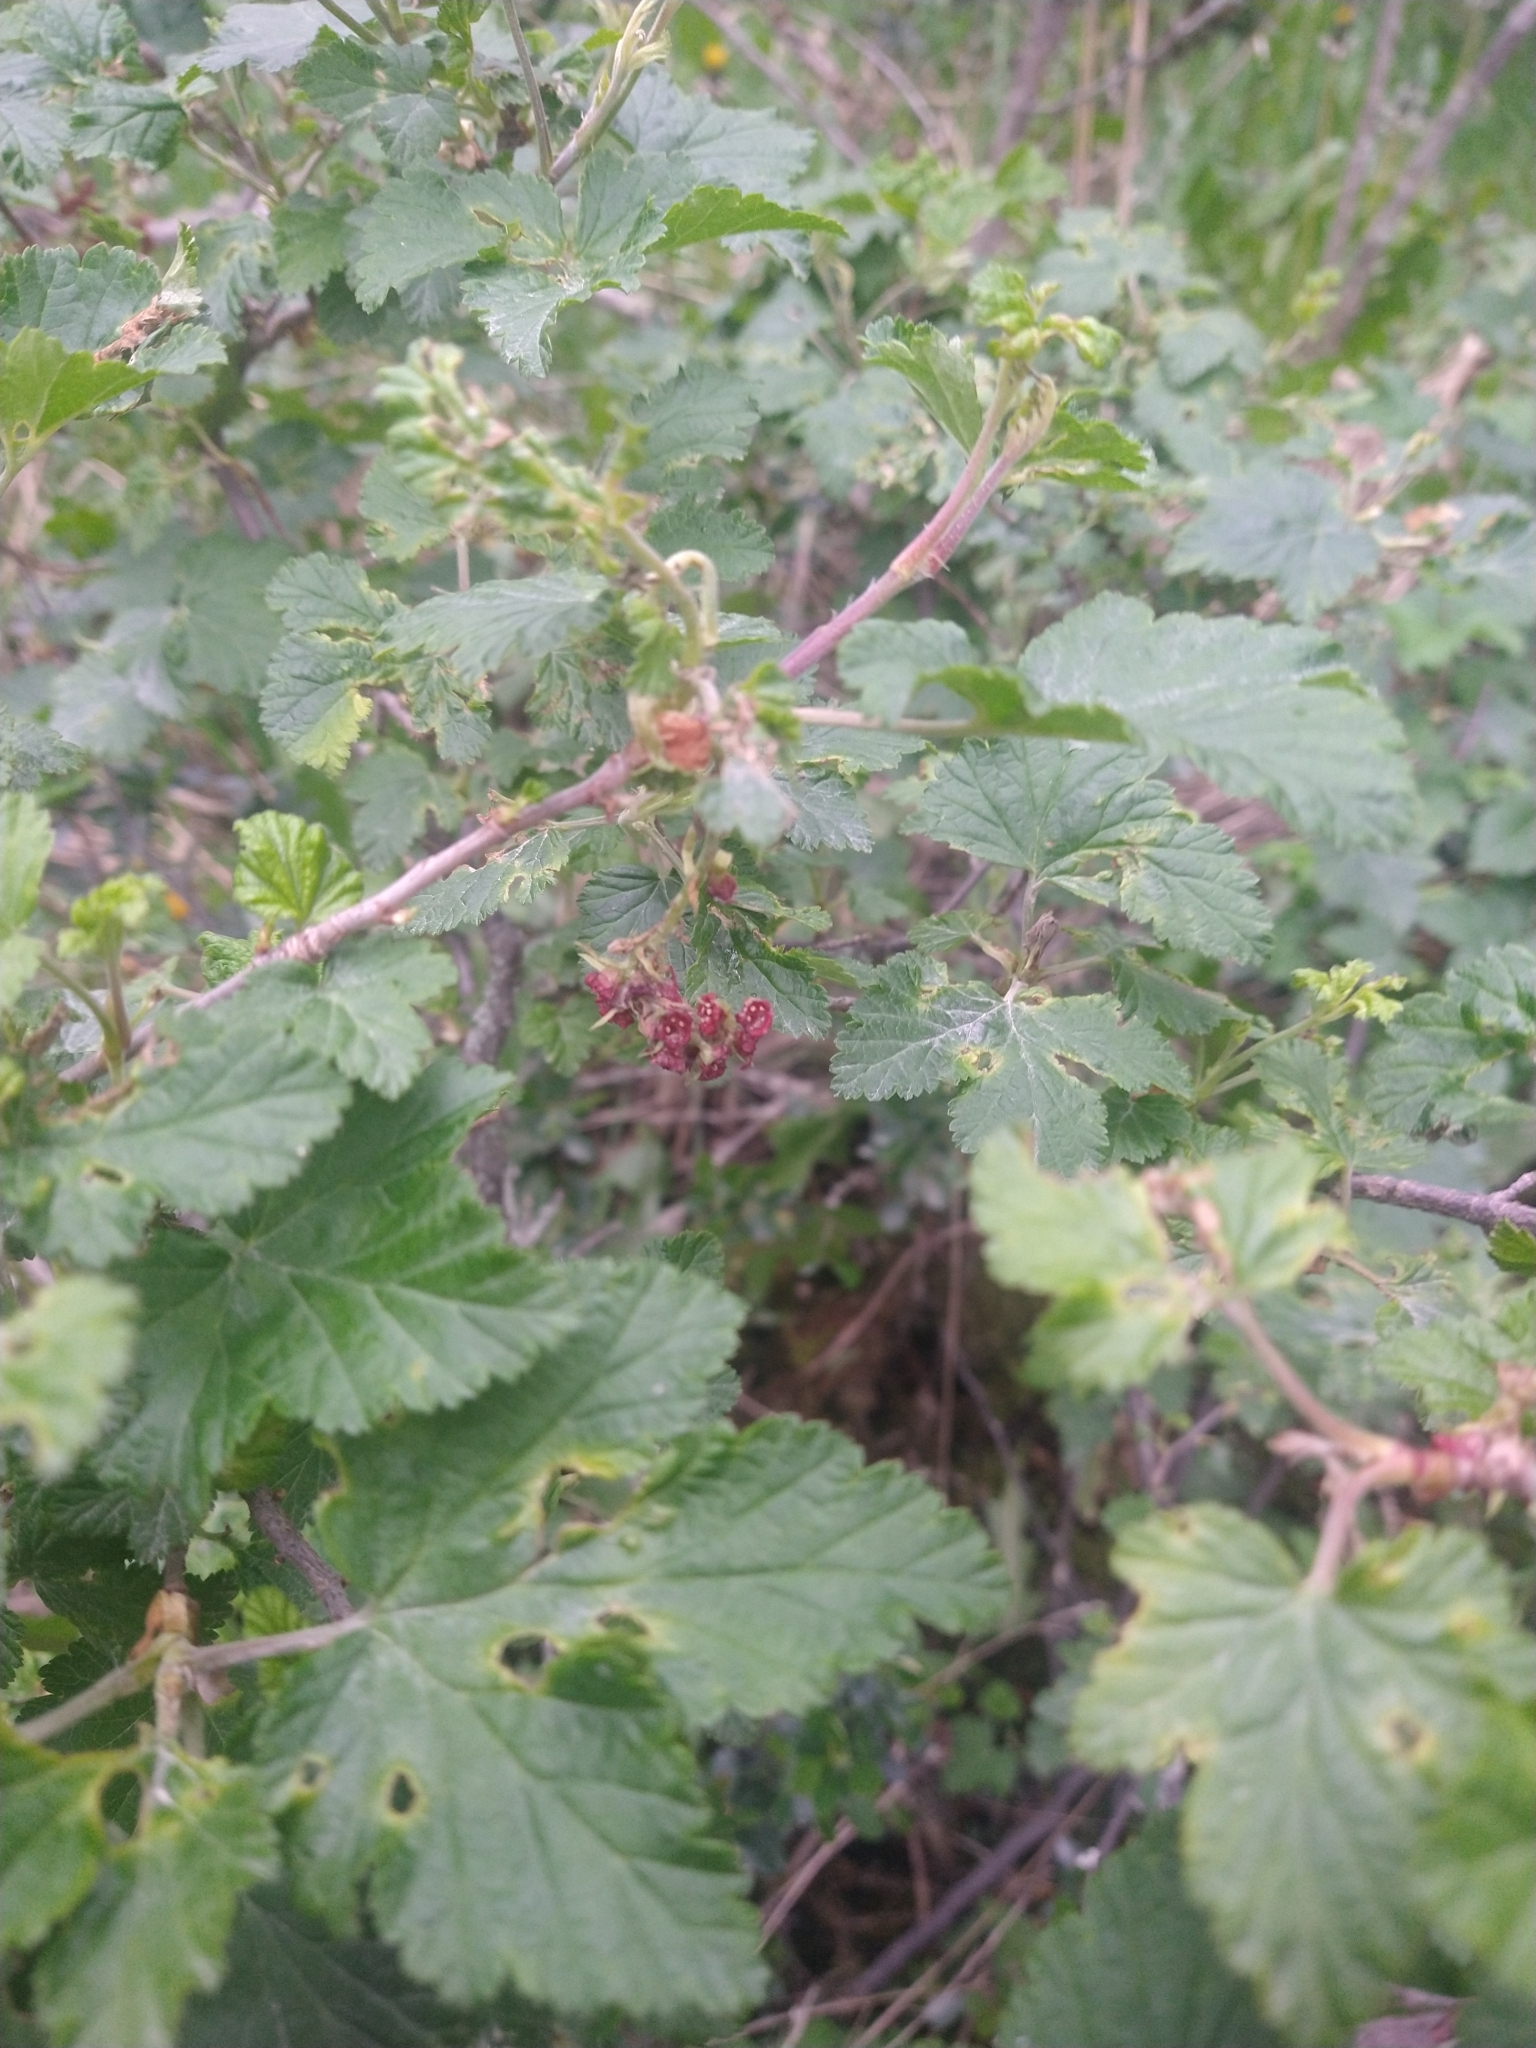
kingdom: Plantae
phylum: Tracheophyta
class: Magnoliopsida
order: Saxifragales
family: Grossulariaceae
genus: Ribes
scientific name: Ribes magellanicum
